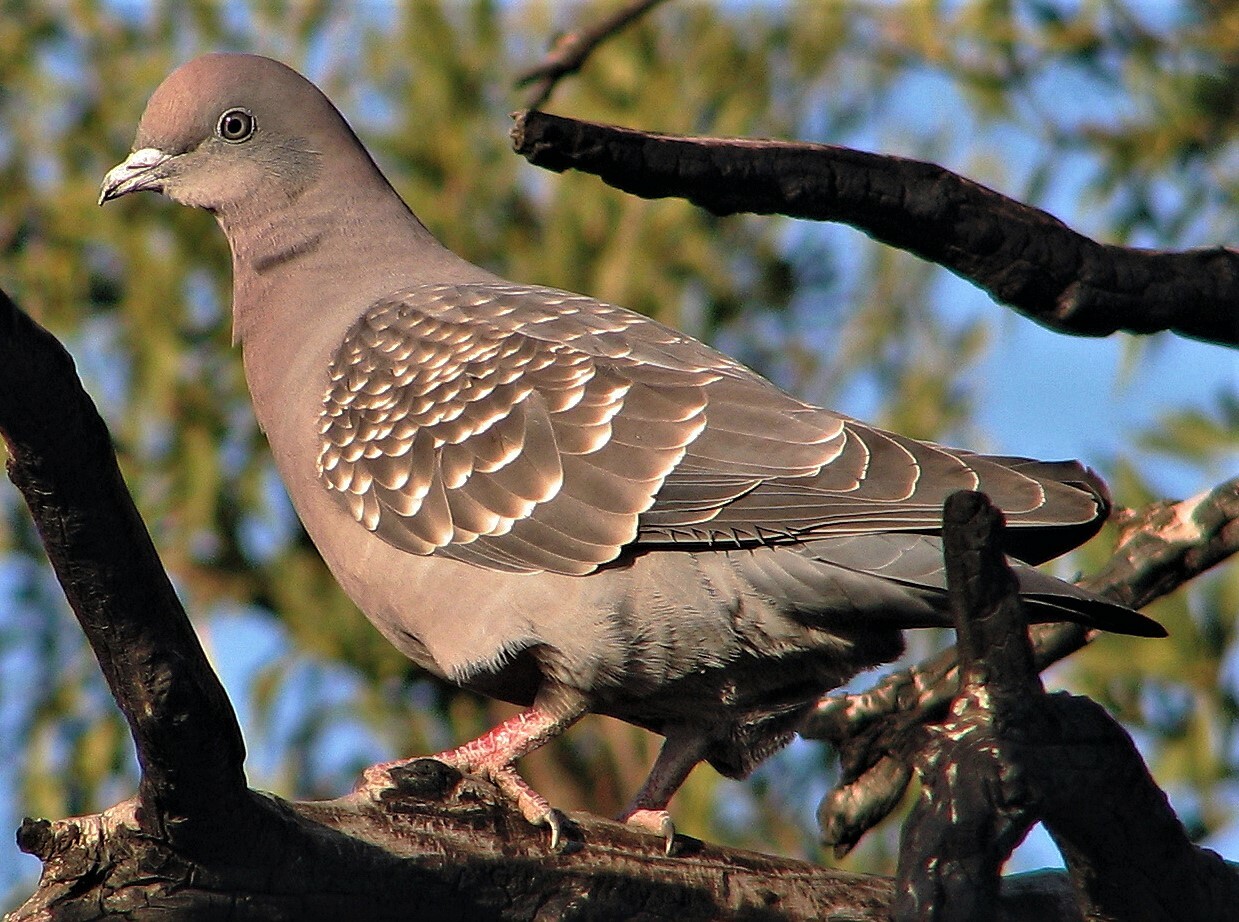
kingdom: Animalia
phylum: Chordata
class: Aves
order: Columbiformes
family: Columbidae
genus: Patagioenas
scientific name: Patagioenas maculosa
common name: Spot-winged pigeon
